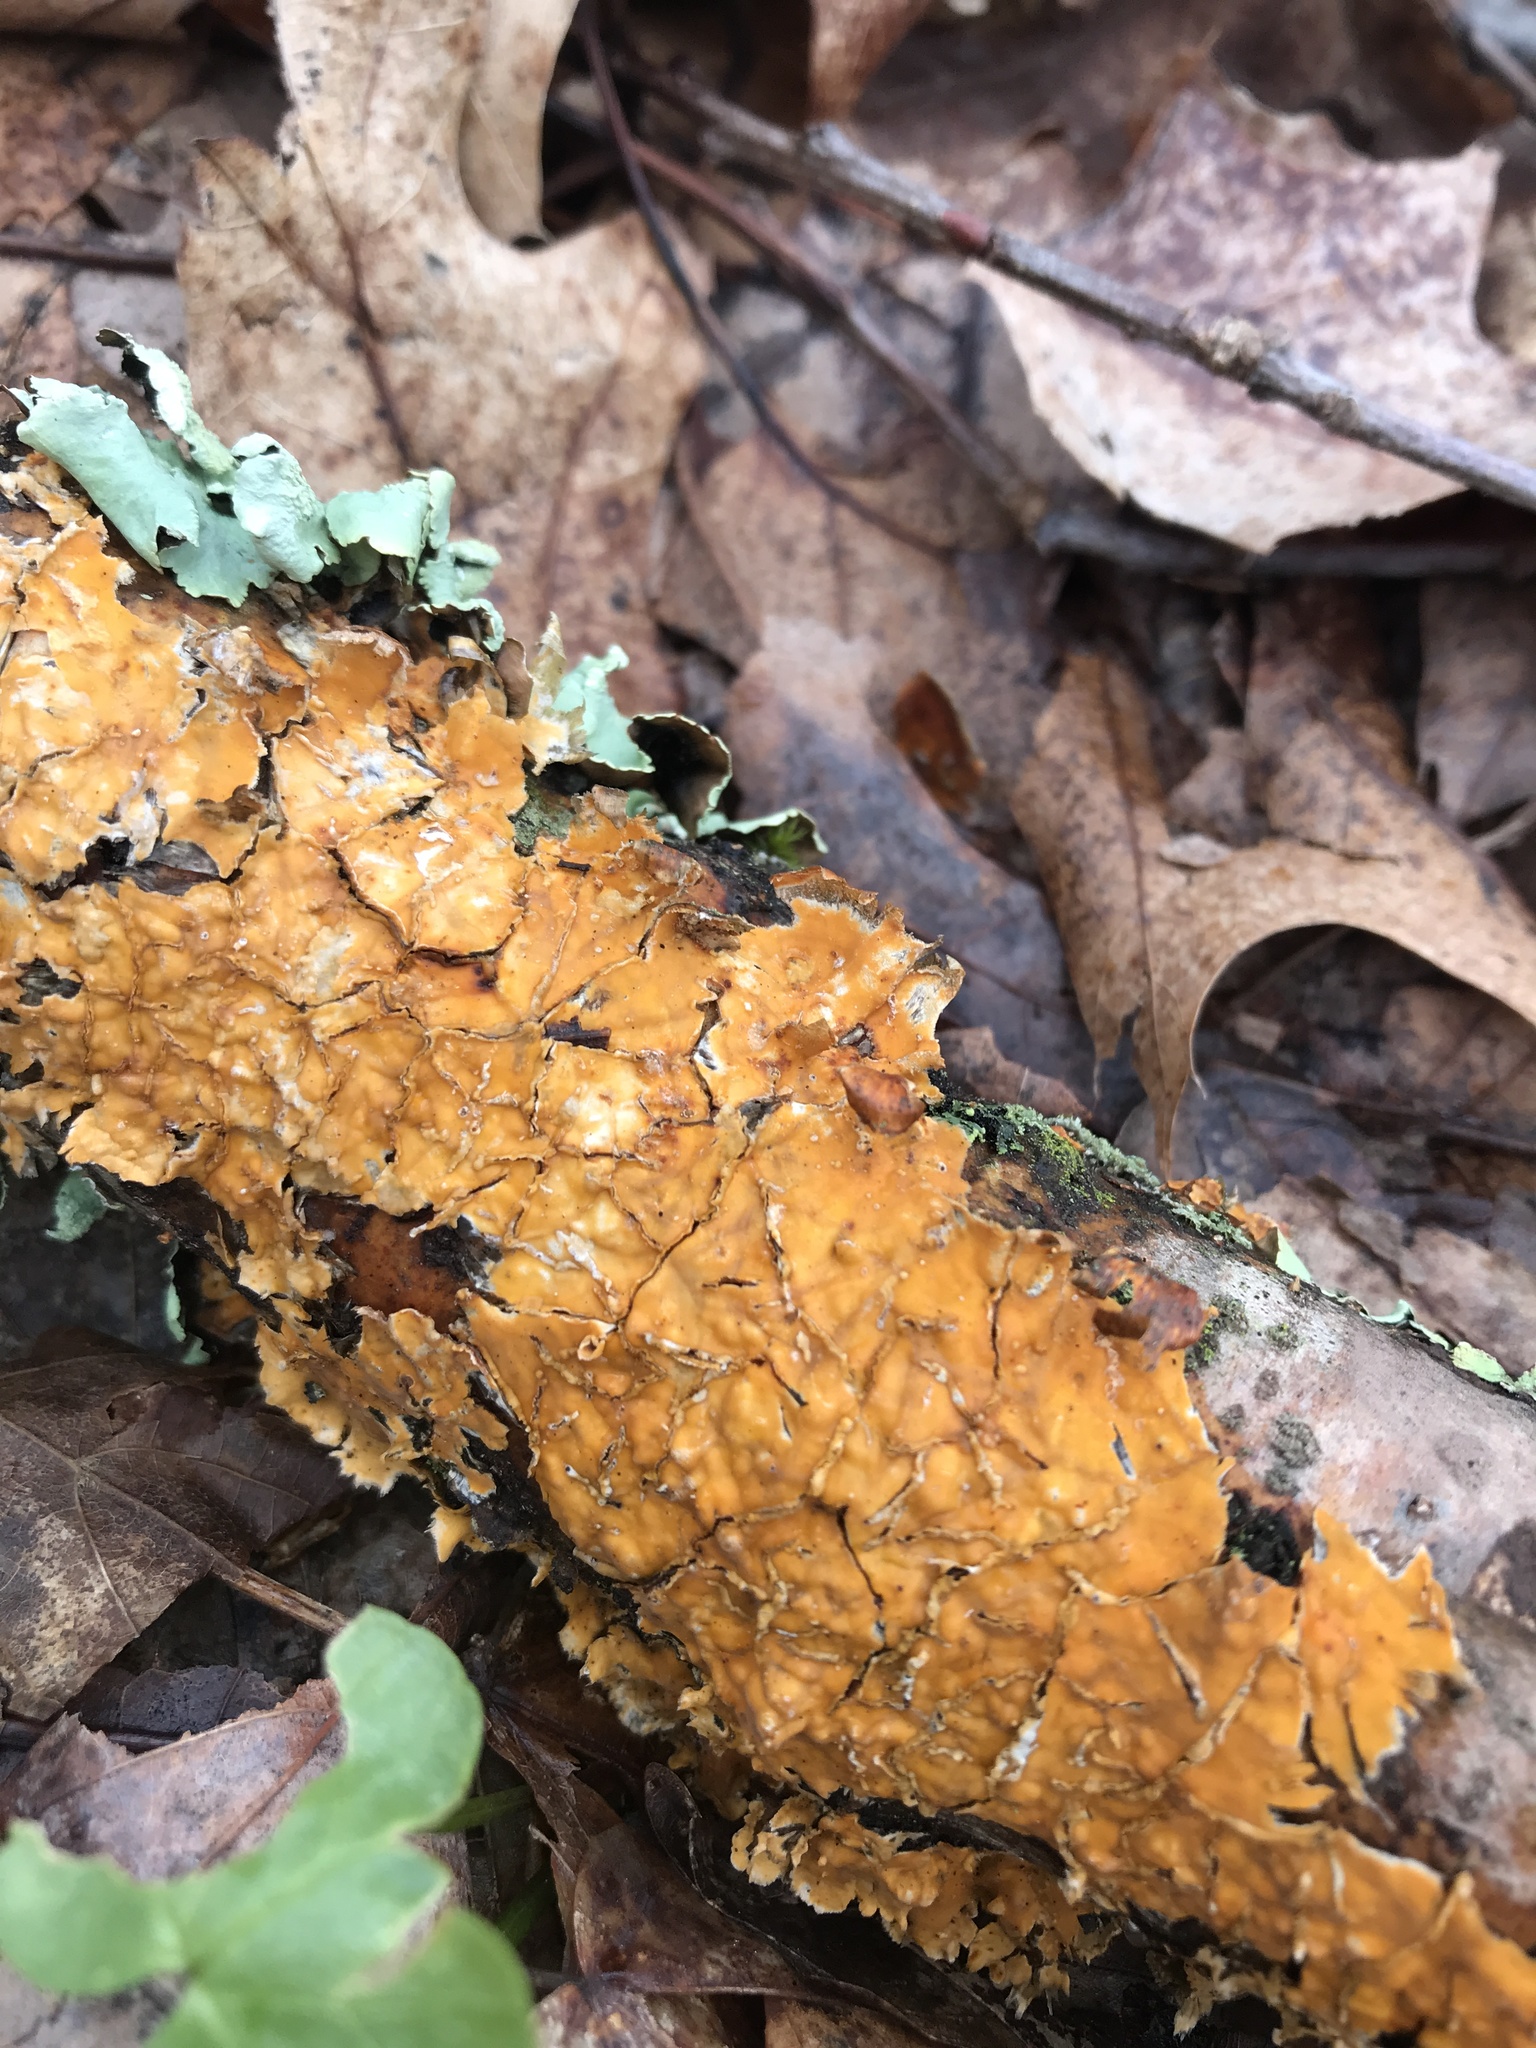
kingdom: Fungi
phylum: Basidiomycota
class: Agaricomycetes
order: Russulales
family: Stereaceae
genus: Stereum
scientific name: Stereum complicatum
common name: Crowded parchment
